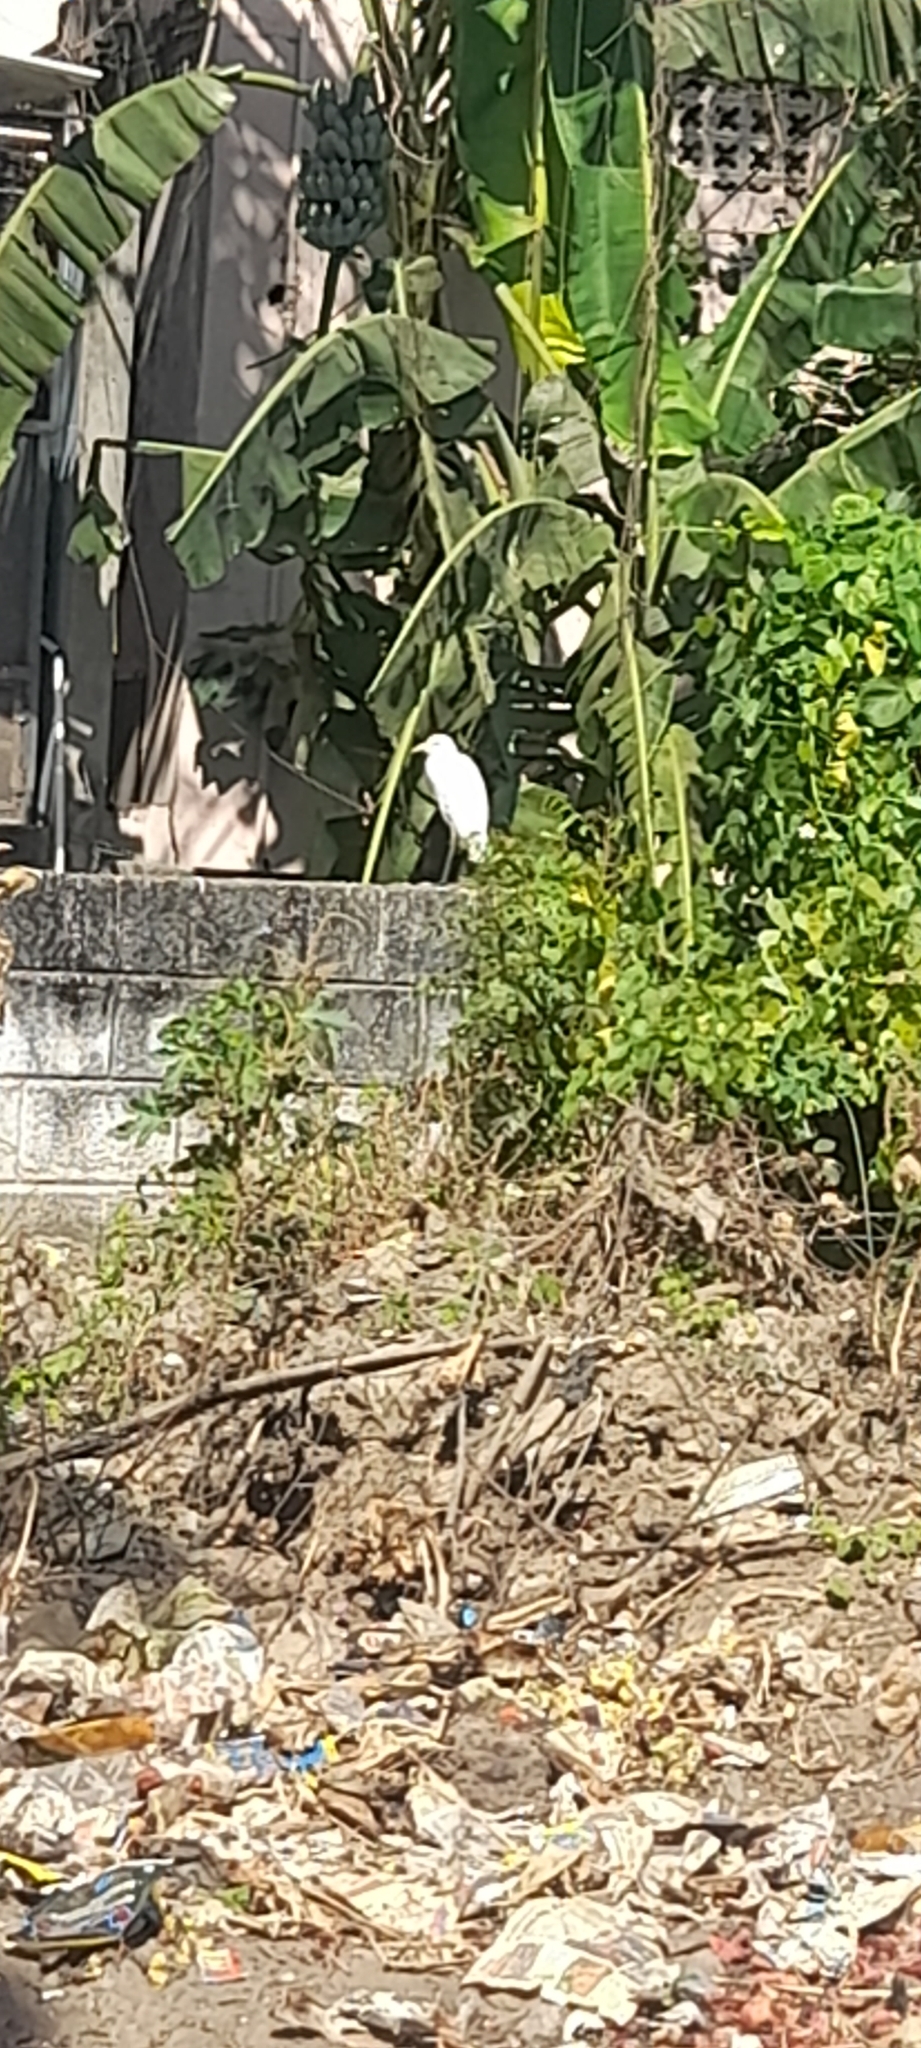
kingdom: Animalia
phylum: Chordata
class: Aves
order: Pelecaniformes
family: Ardeidae
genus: Bubulcus
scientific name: Bubulcus coromandus
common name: Eastern cattle egret
